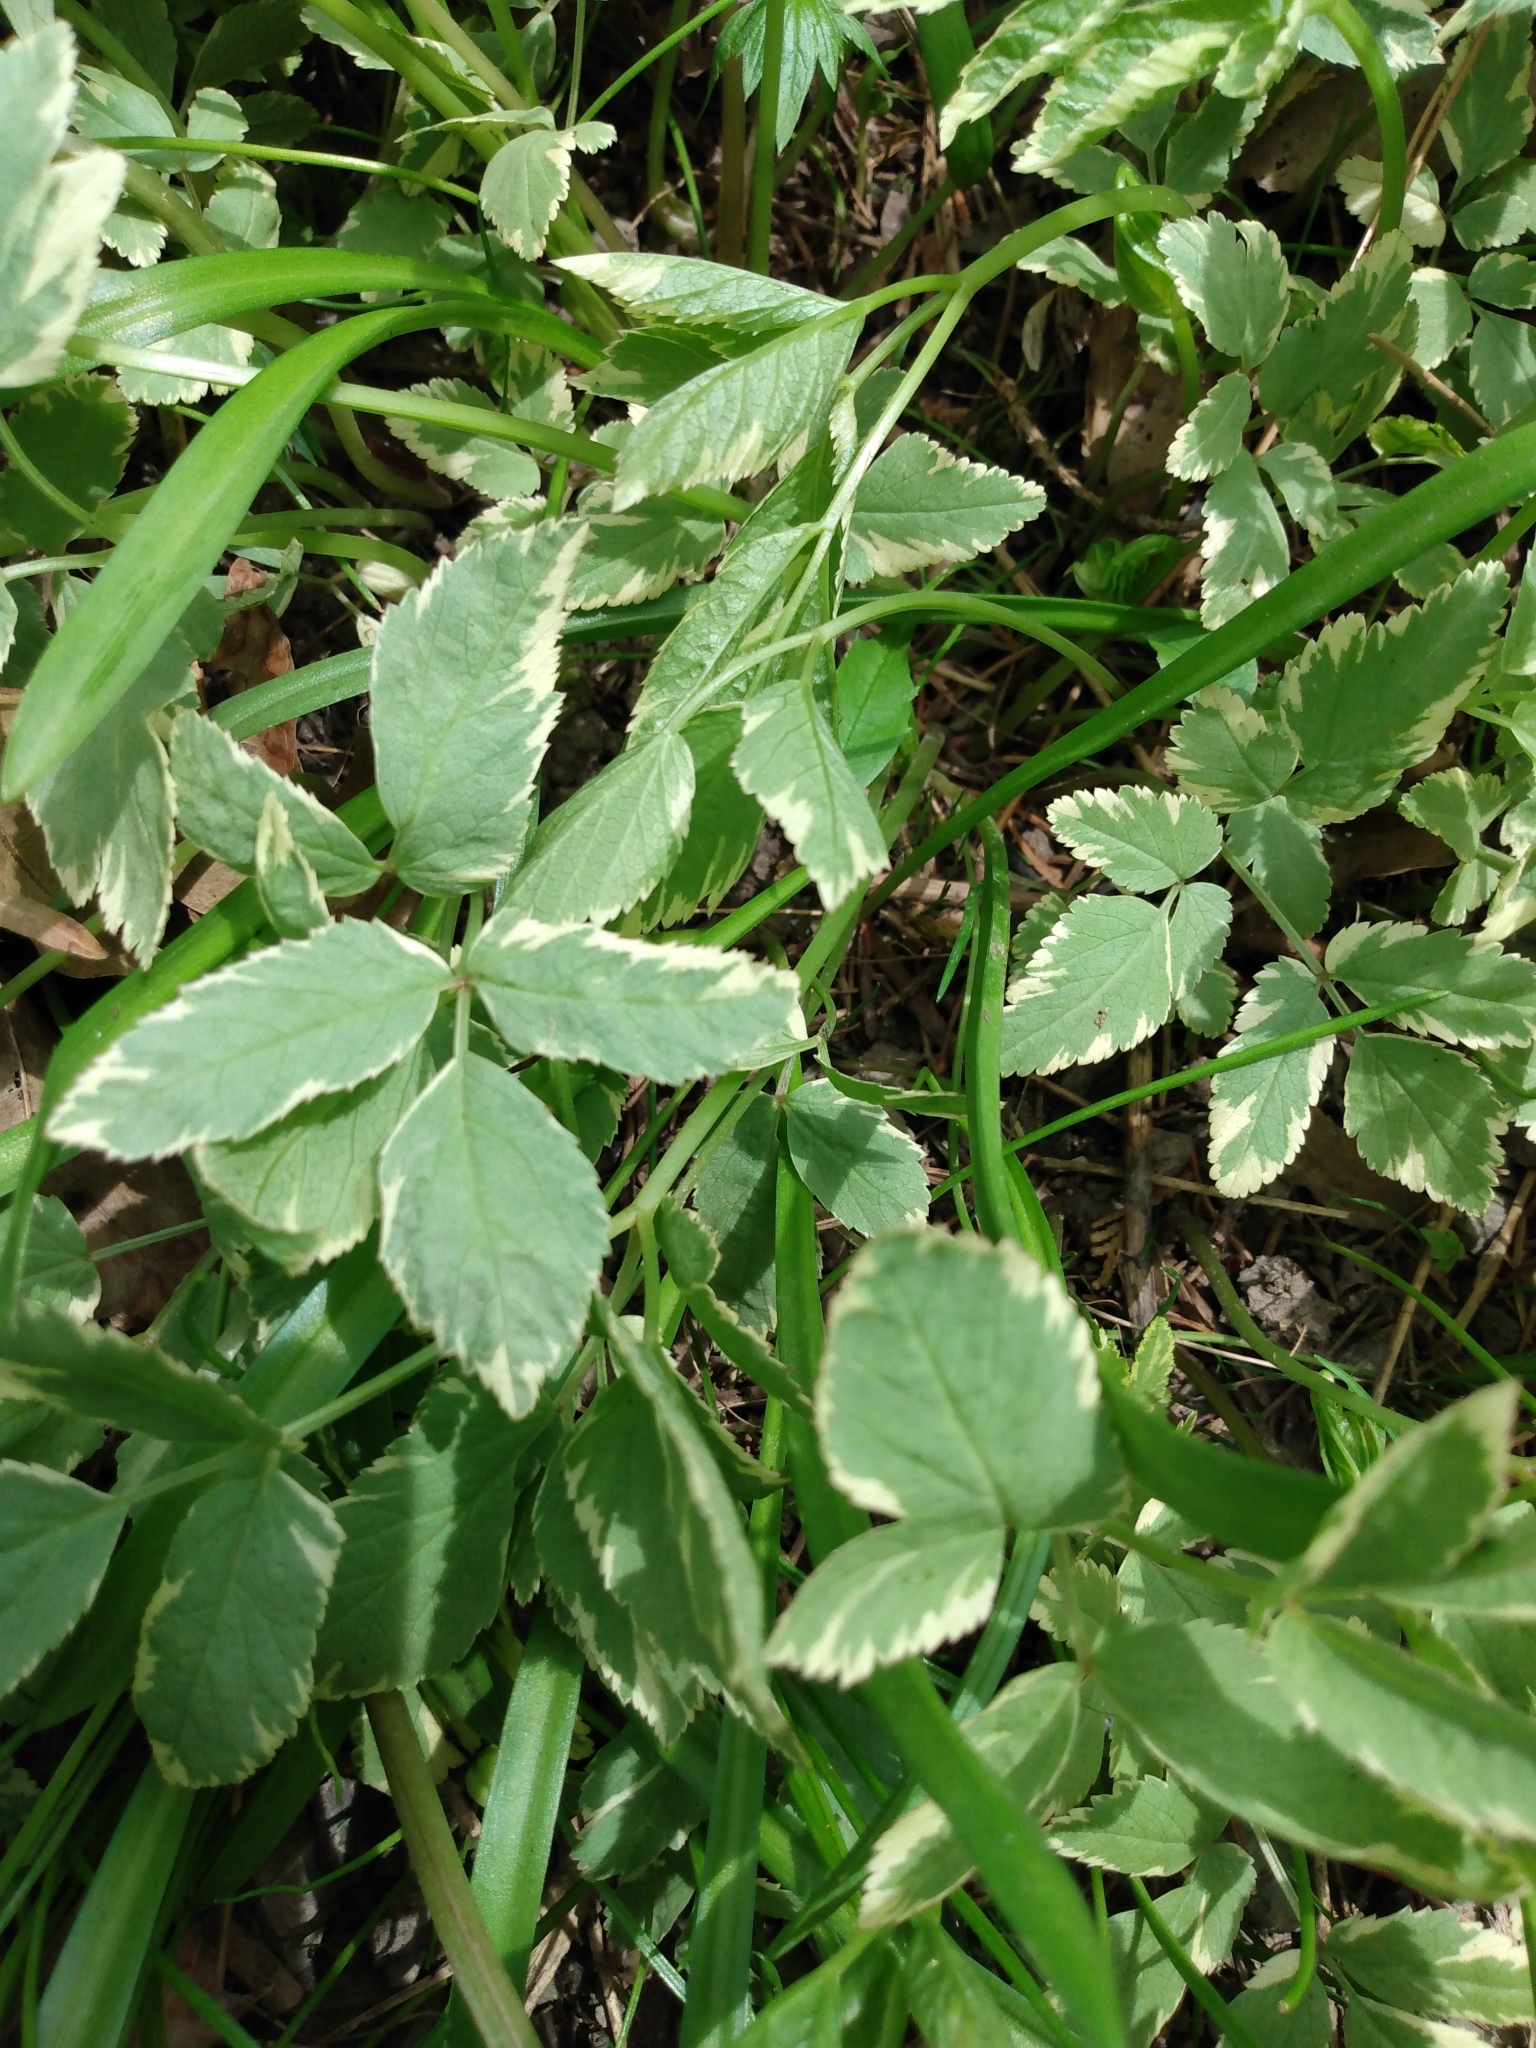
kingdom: Plantae
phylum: Tracheophyta
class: Magnoliopsida
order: Apiales
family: Apiaceae
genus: Aegopodium
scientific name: Aegopodium podagraria
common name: Ground-elder
